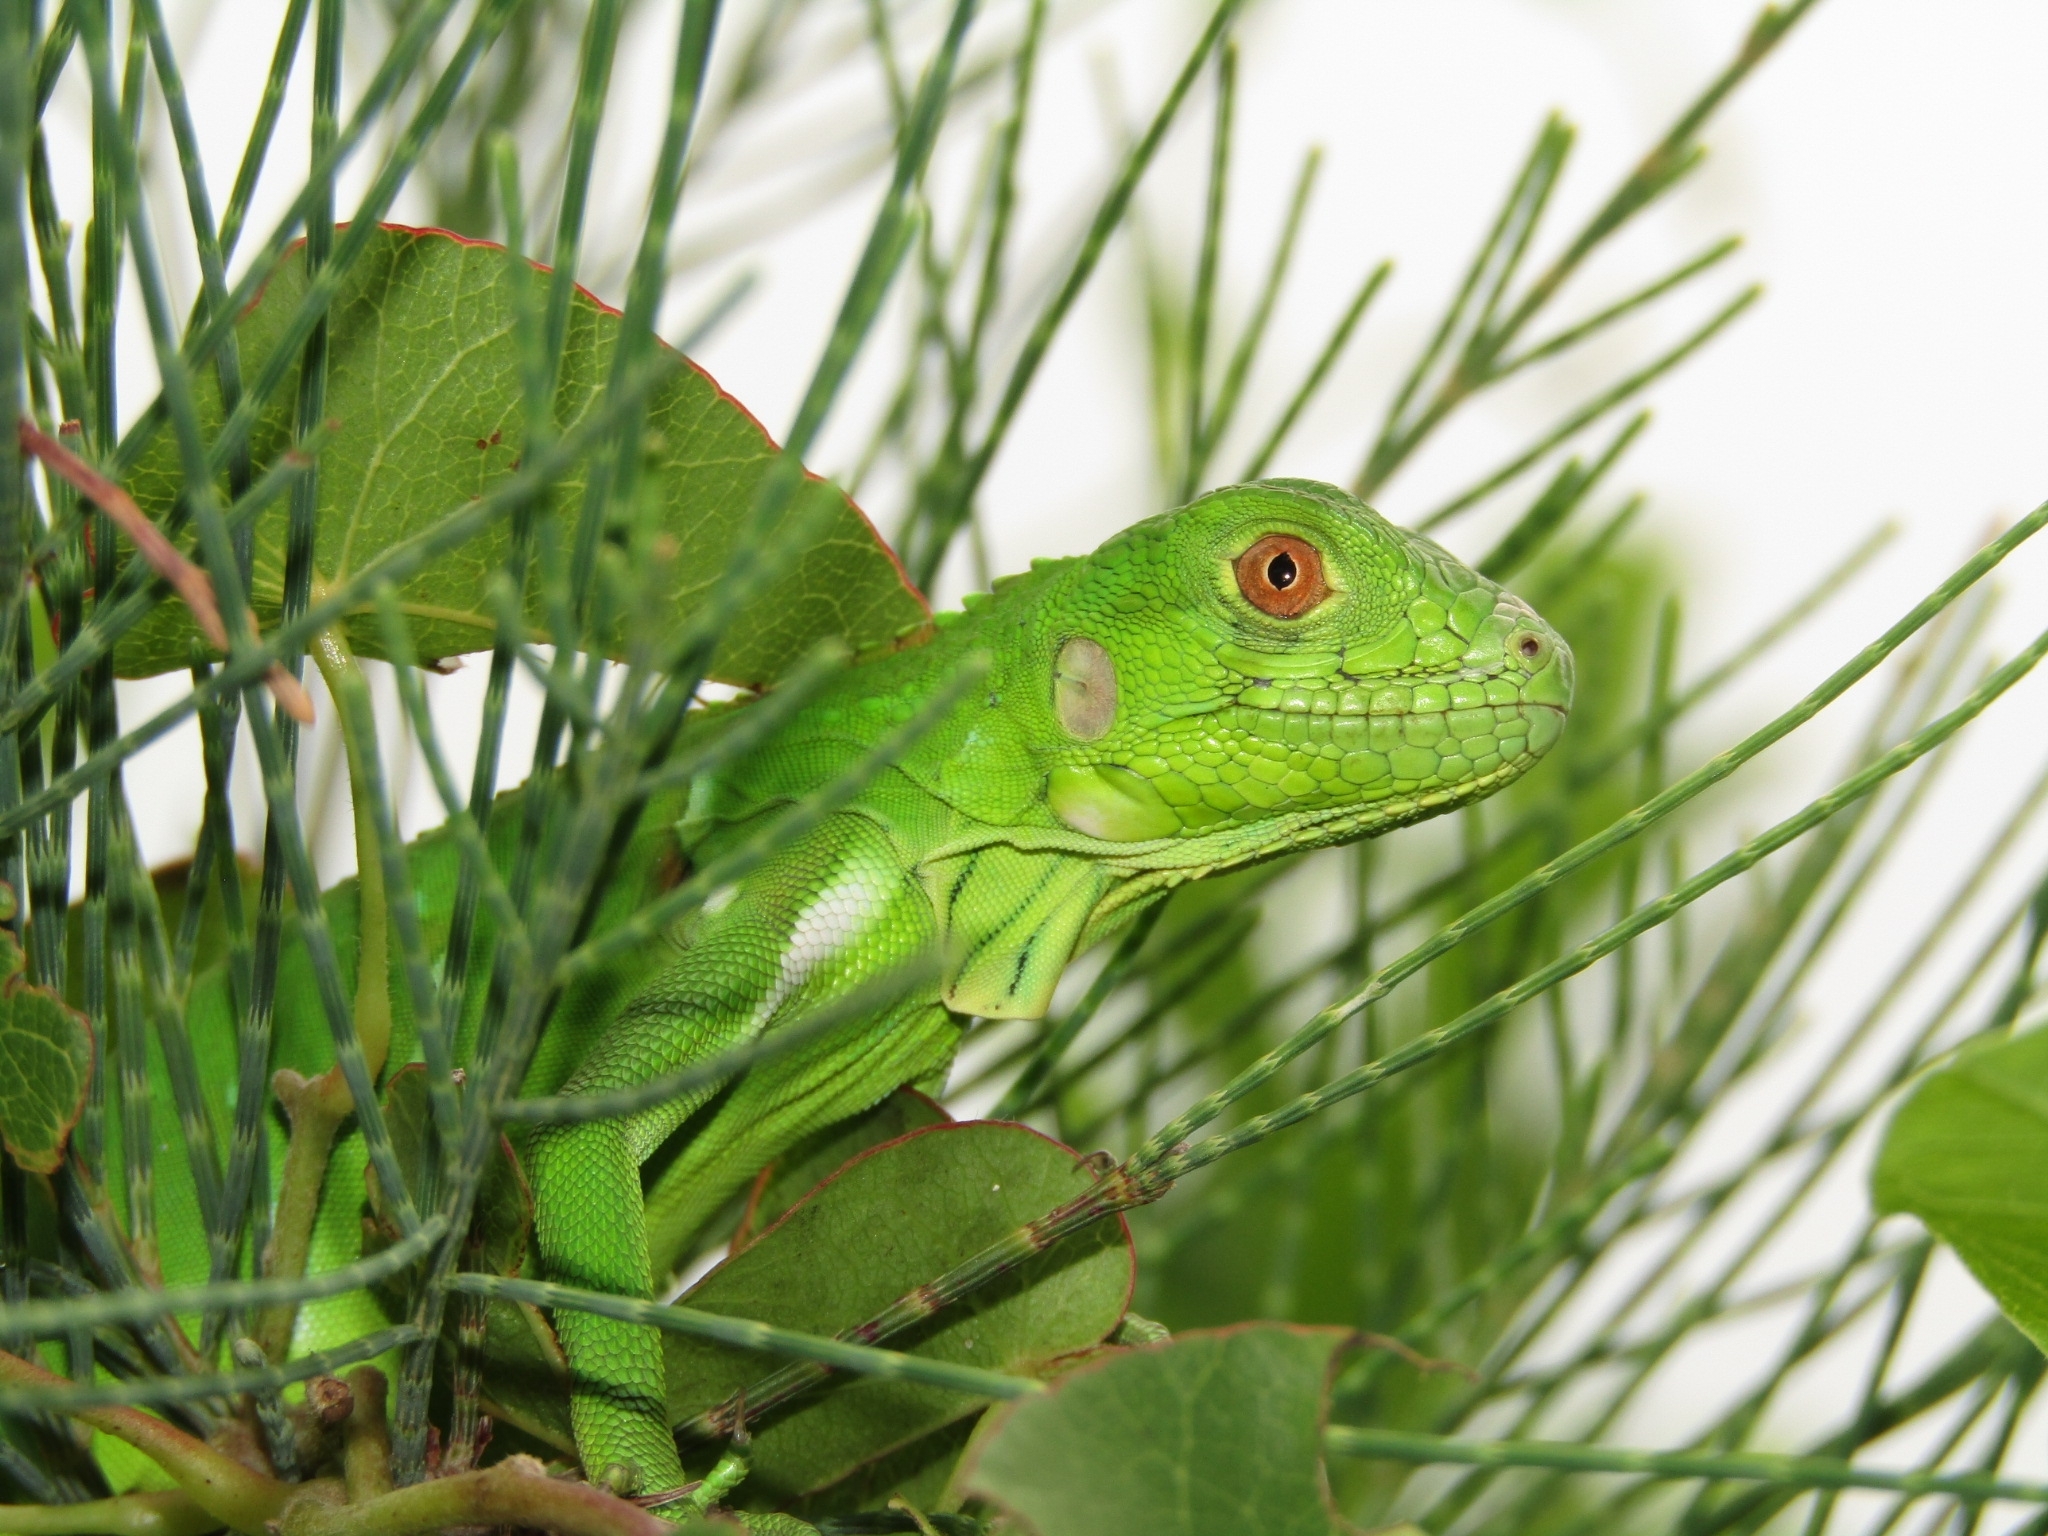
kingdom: Animalia
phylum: Chordata
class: Squamata
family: Iguanidae
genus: Iguana
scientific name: Iguana iguana
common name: Green iguana
